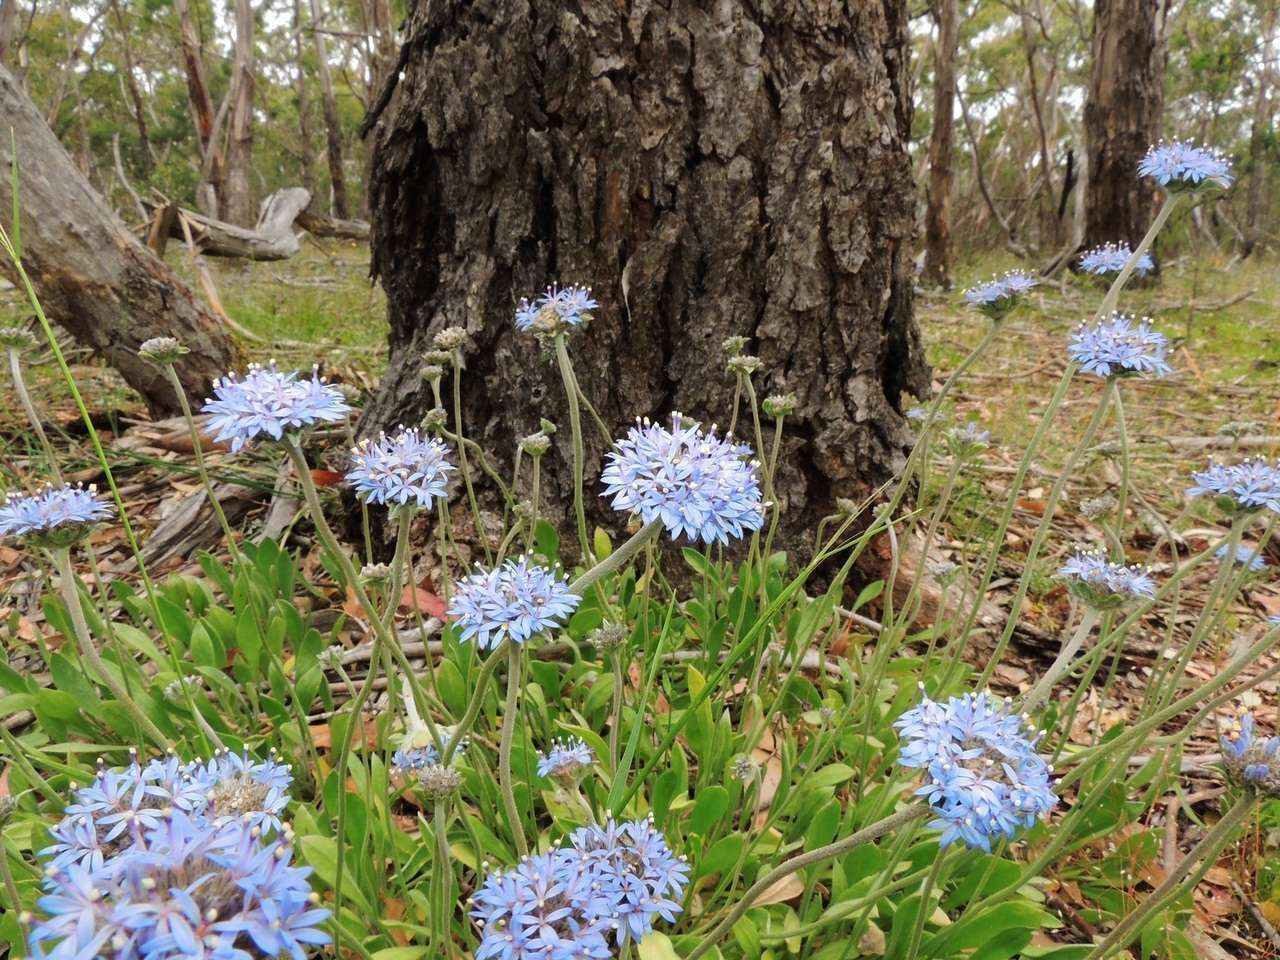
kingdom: Plantae
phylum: Tracheophyta
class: Magnoliopsida
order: Asterales
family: Goodeniaceae
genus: Brunonia
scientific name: Brunonia australis
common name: Blue pincushion
